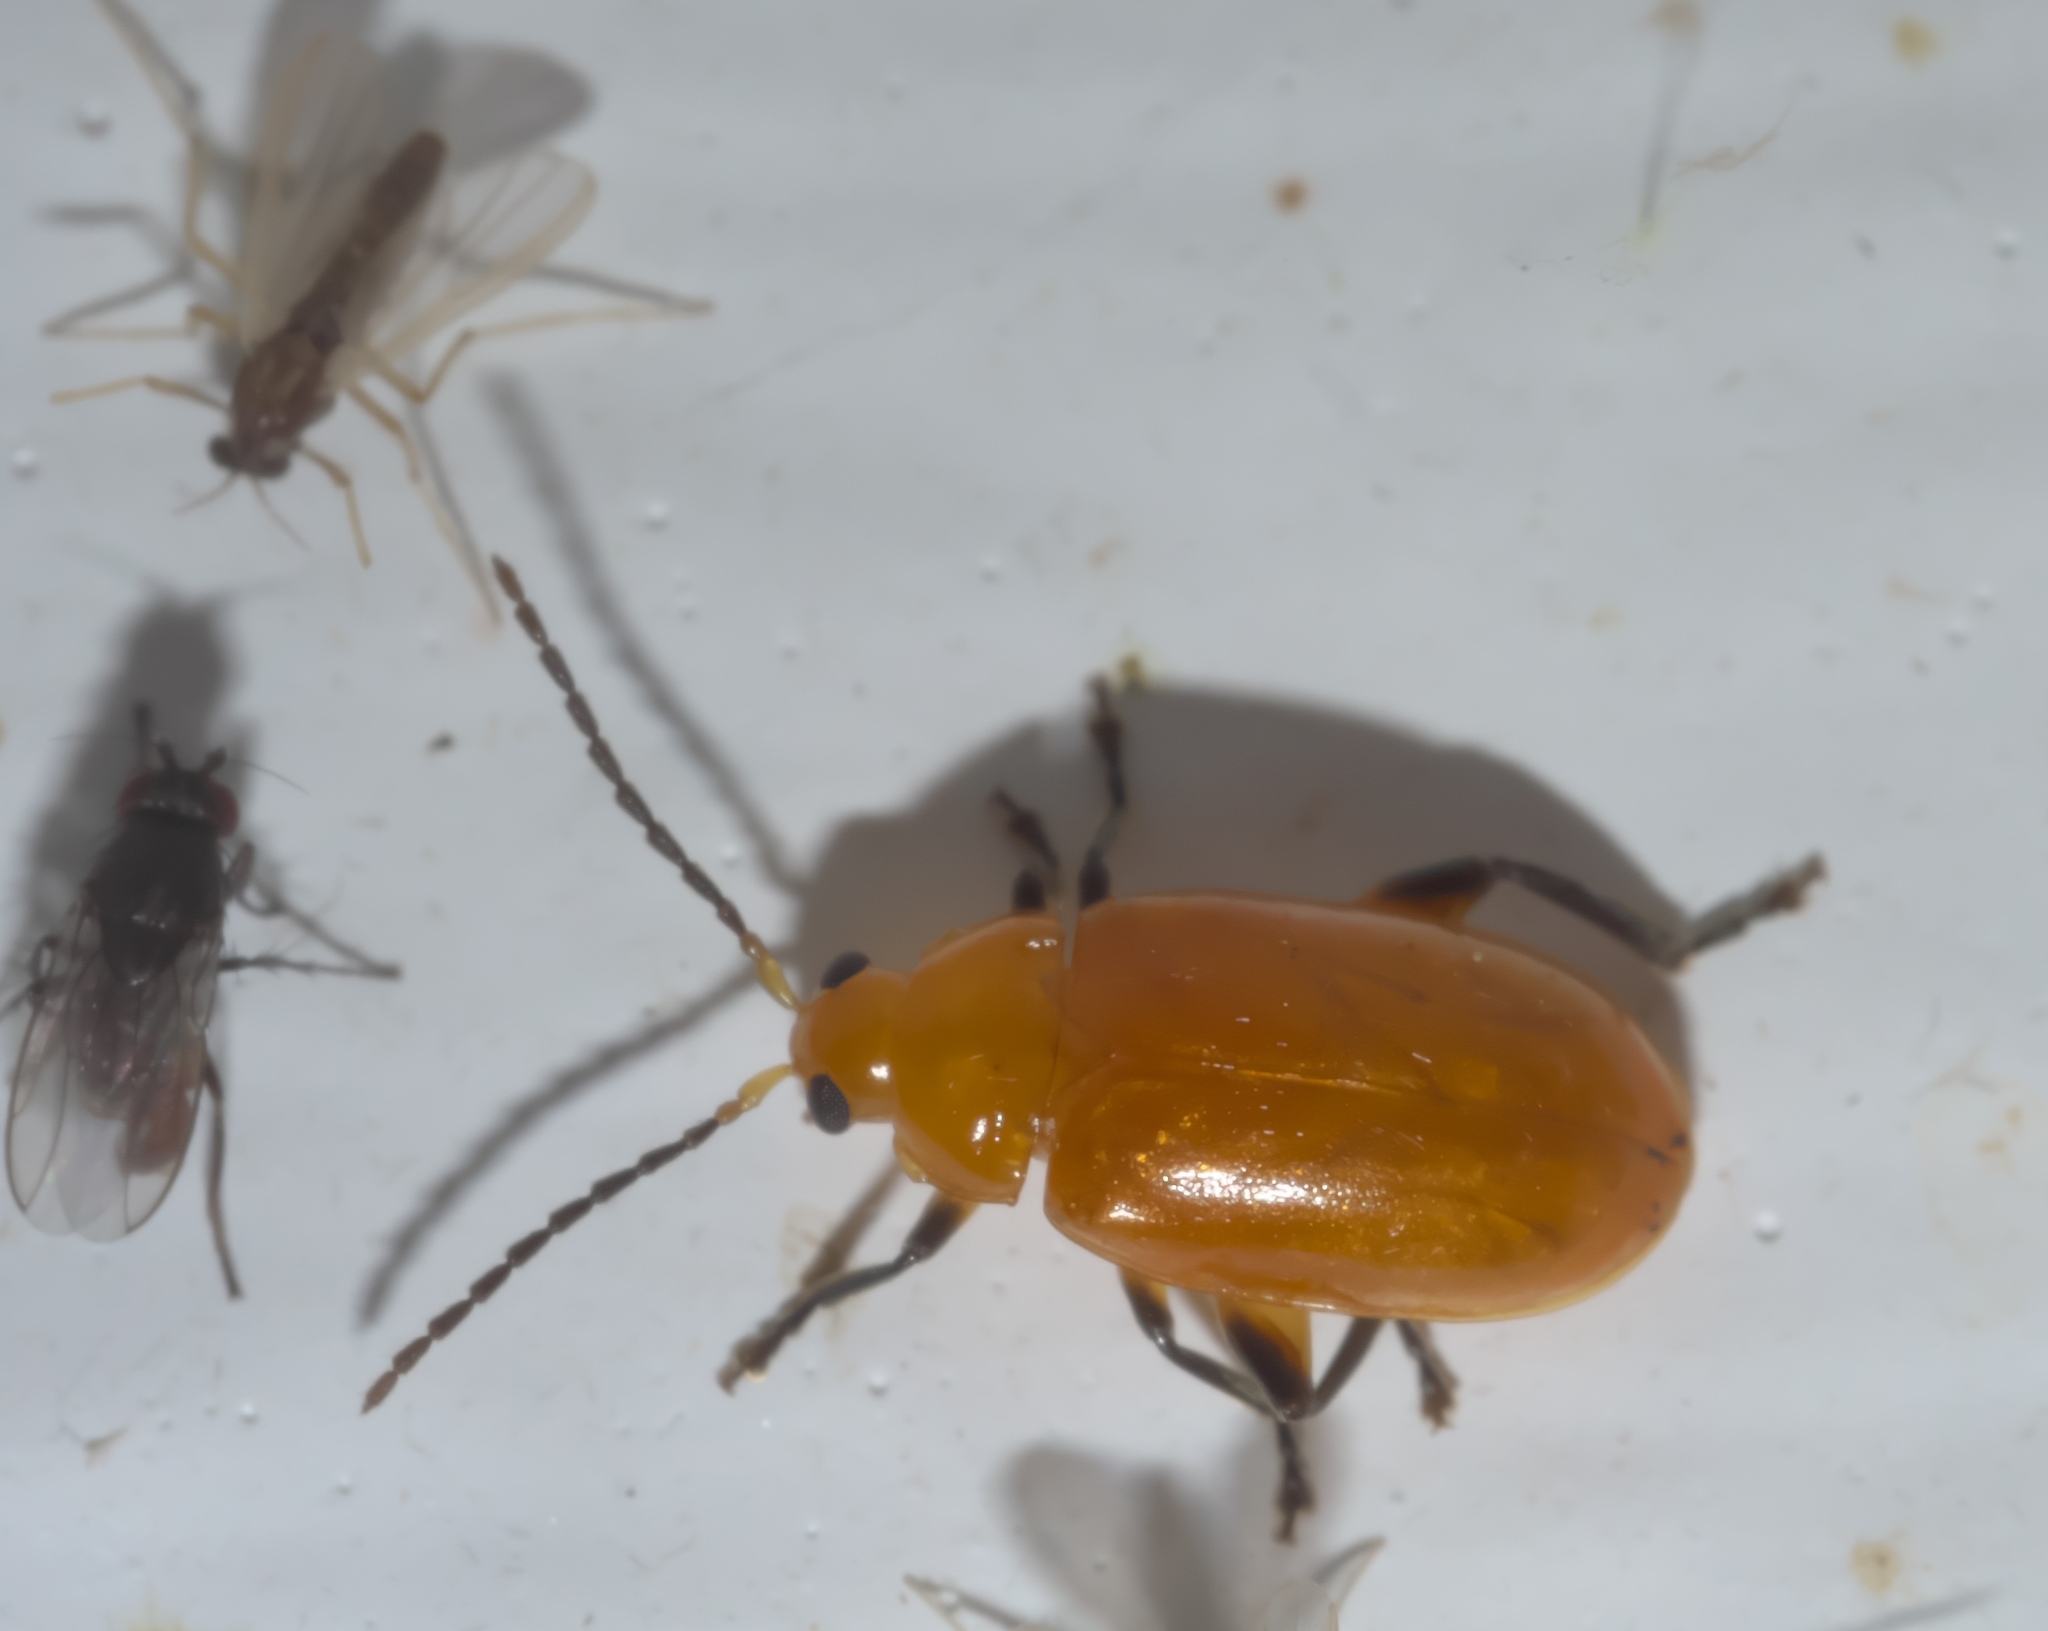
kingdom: Animalia
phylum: Arthropoda
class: Insecta
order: Coleoptera
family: Chrysomelidae
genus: Parchicola
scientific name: Parchicola tibialis
